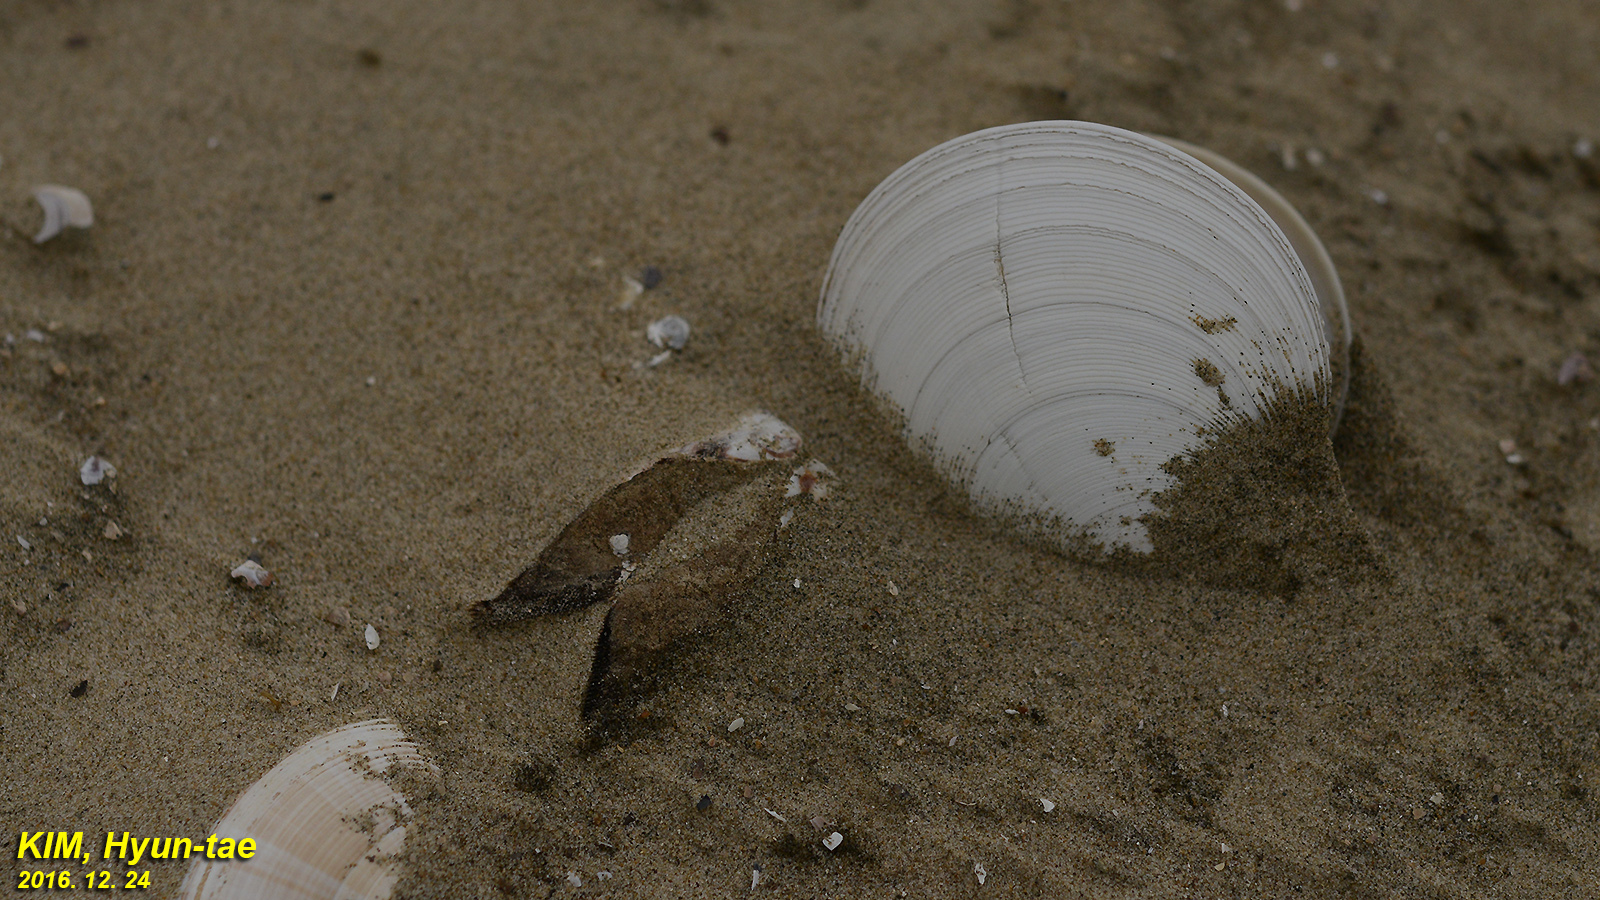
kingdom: Animalia
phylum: Mollusca
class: Bivalvia
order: Venerida
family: Veneridae
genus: Dosinia
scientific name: Dosinia japonica
